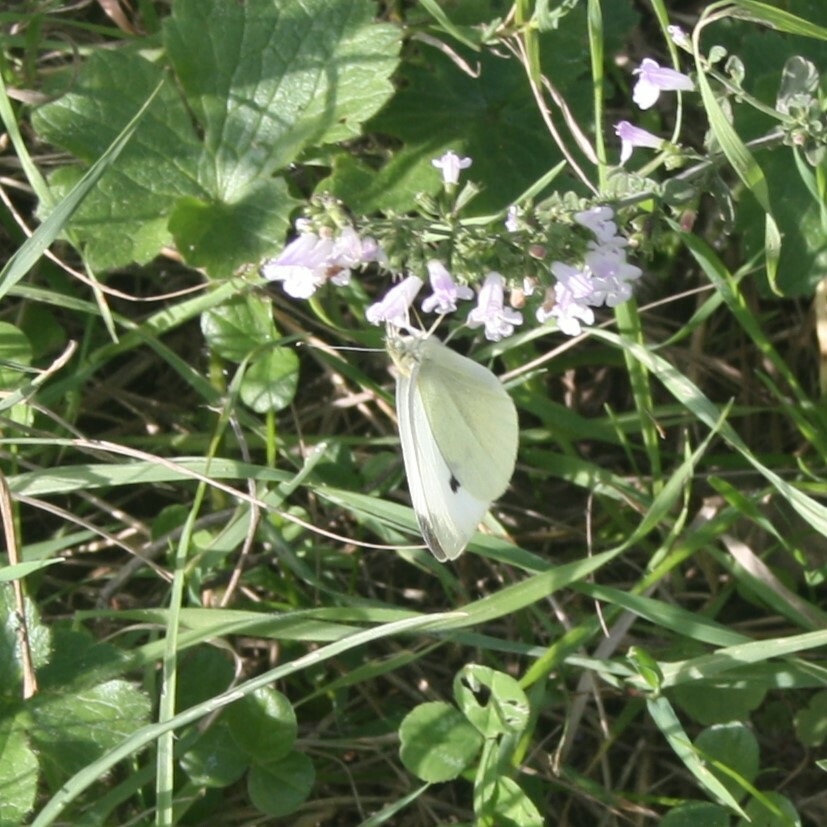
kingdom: Animalia
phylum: Arthropoda
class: Insecta
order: Lepidoptera
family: Pieridae
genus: Pieris
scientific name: Pieris rapae
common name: Small white
